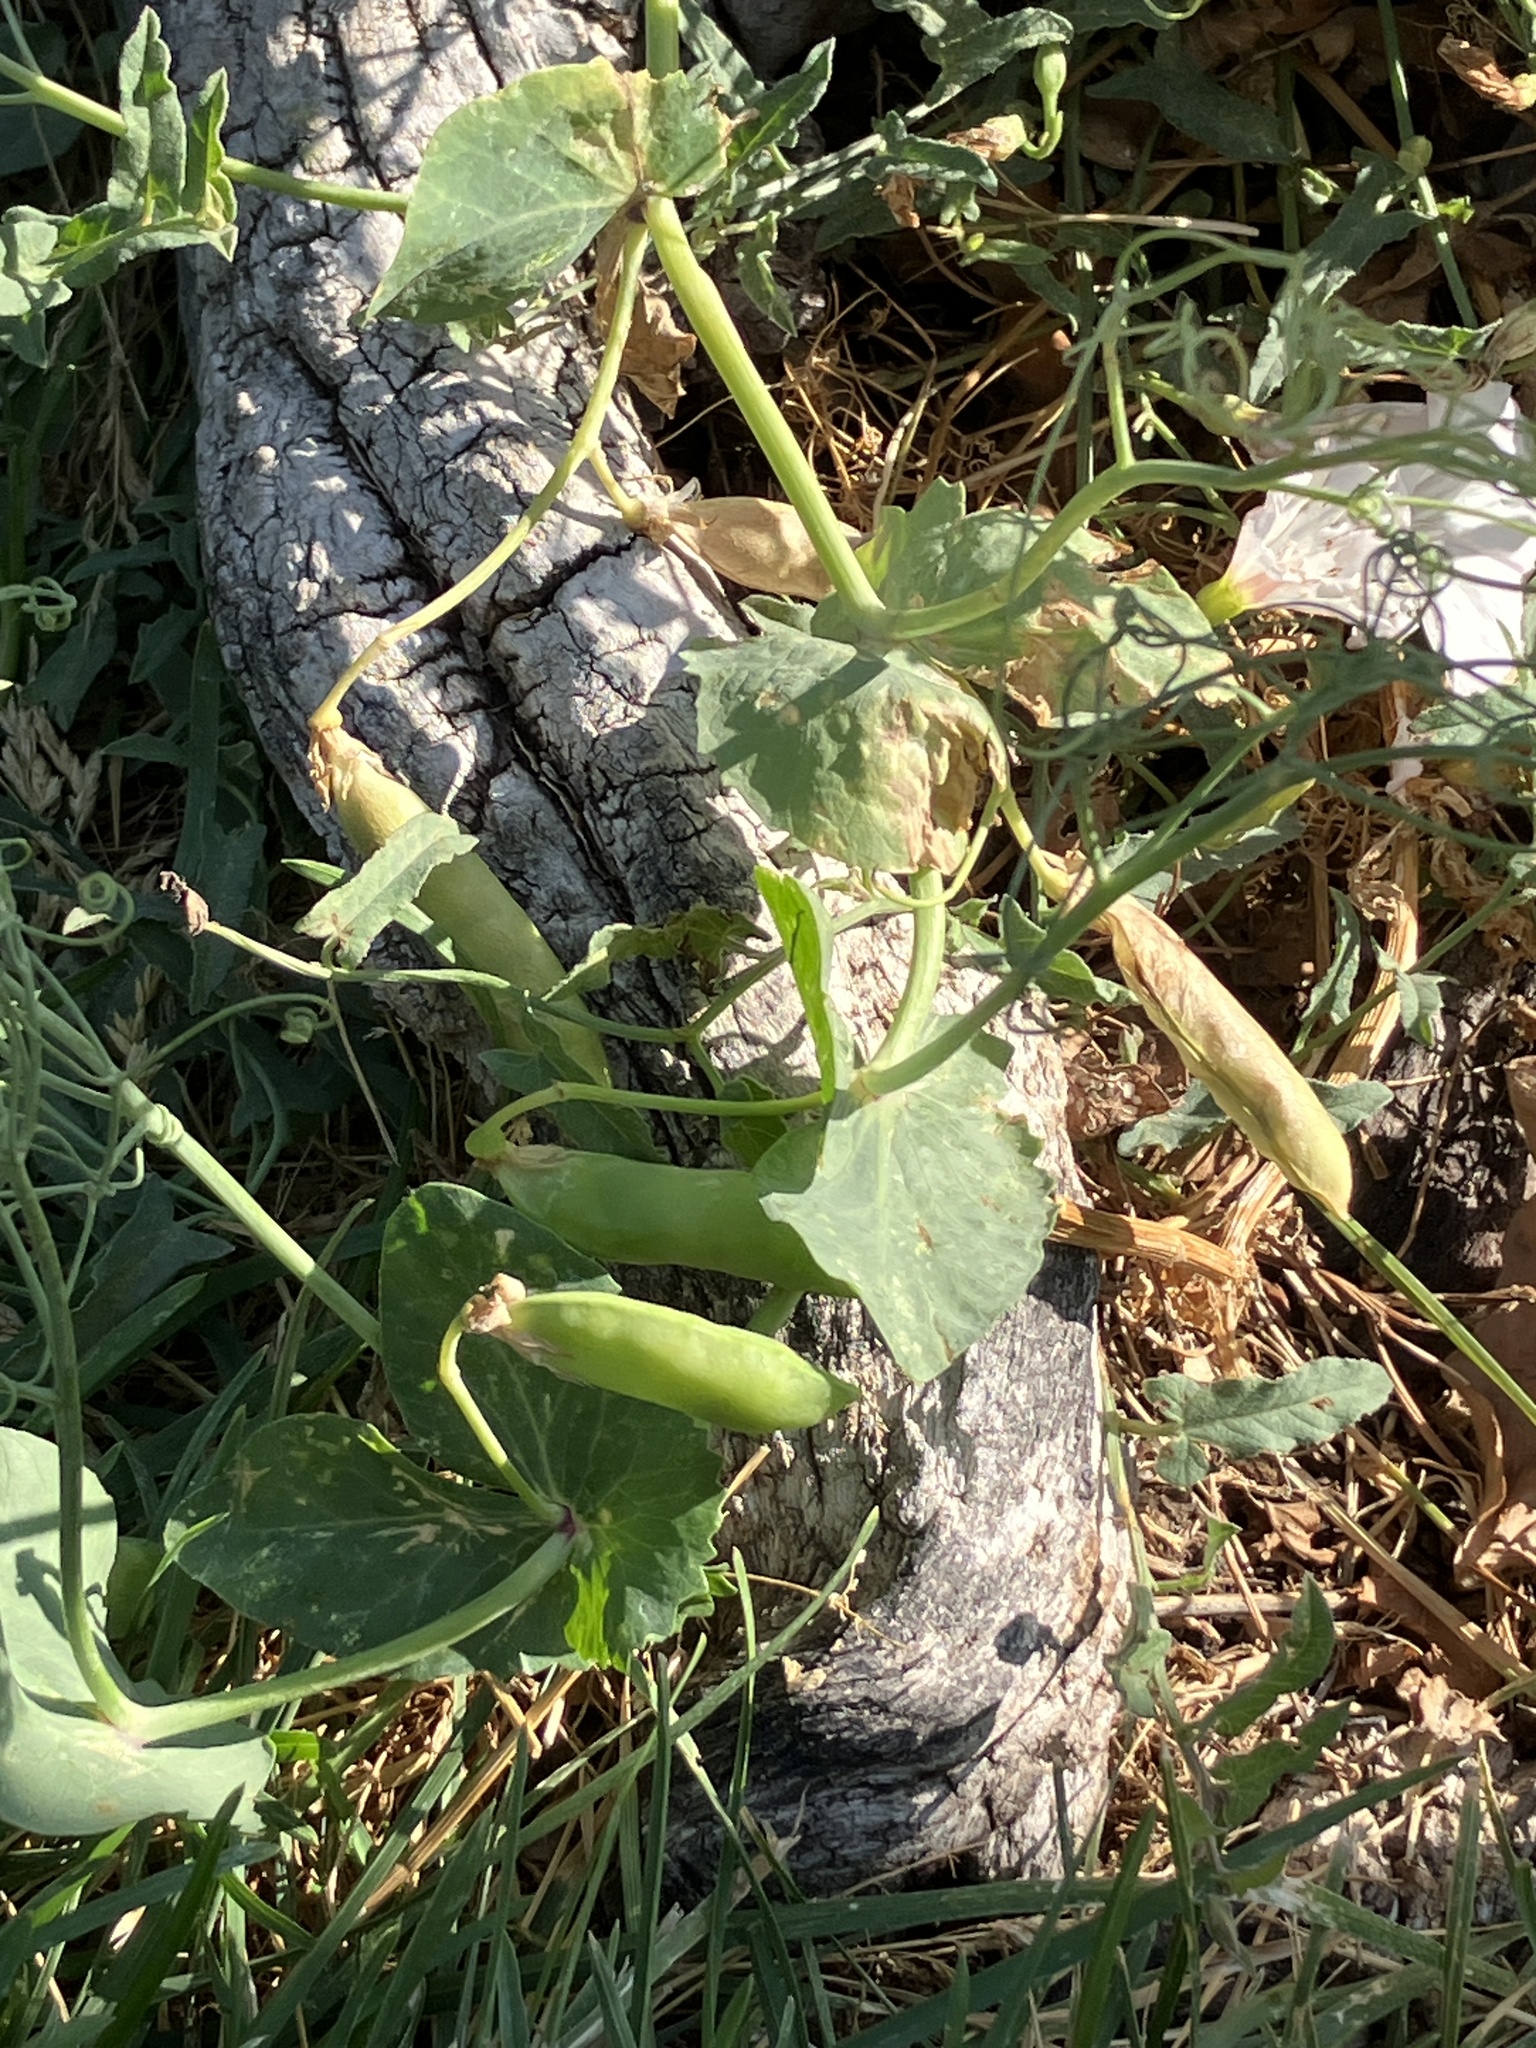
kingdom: Plantae
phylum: Tracheophyta
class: Magnoliopsida
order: Fabales
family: Fabaceae
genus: Lathyrus
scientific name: Lathyrus oleraceus
